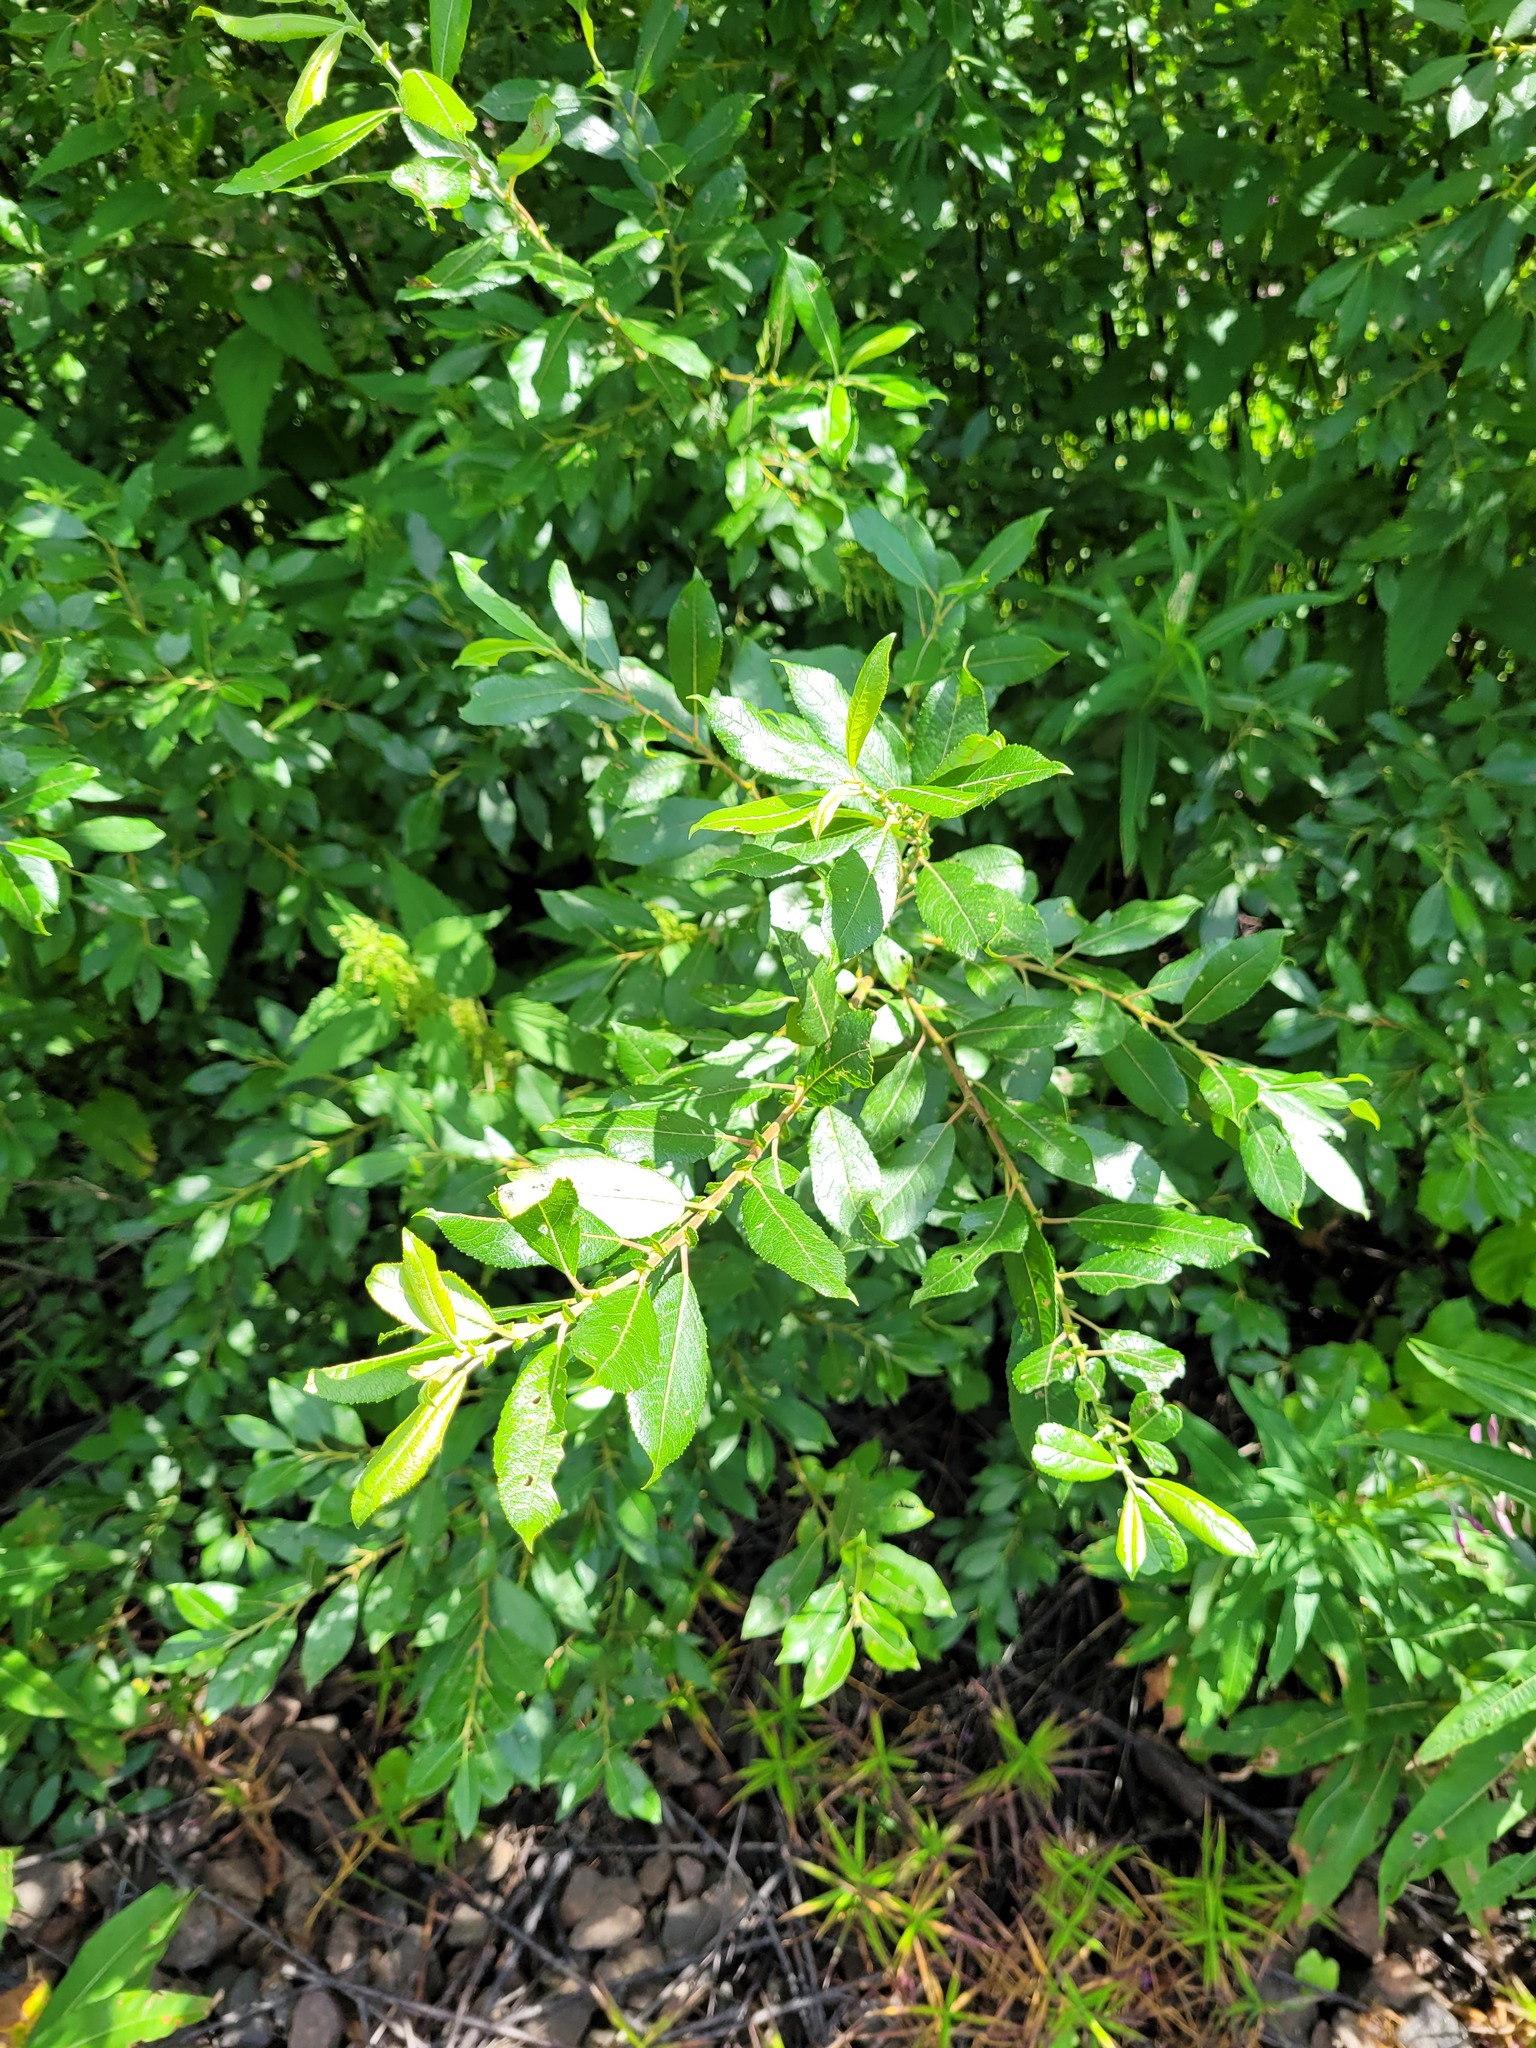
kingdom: Plantae
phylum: Tracheophyta
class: Magnoliopsida
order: Malpighiales
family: Salicaceae
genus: Salix
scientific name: Salix myrsinifolia
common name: Dark-leaved willow
